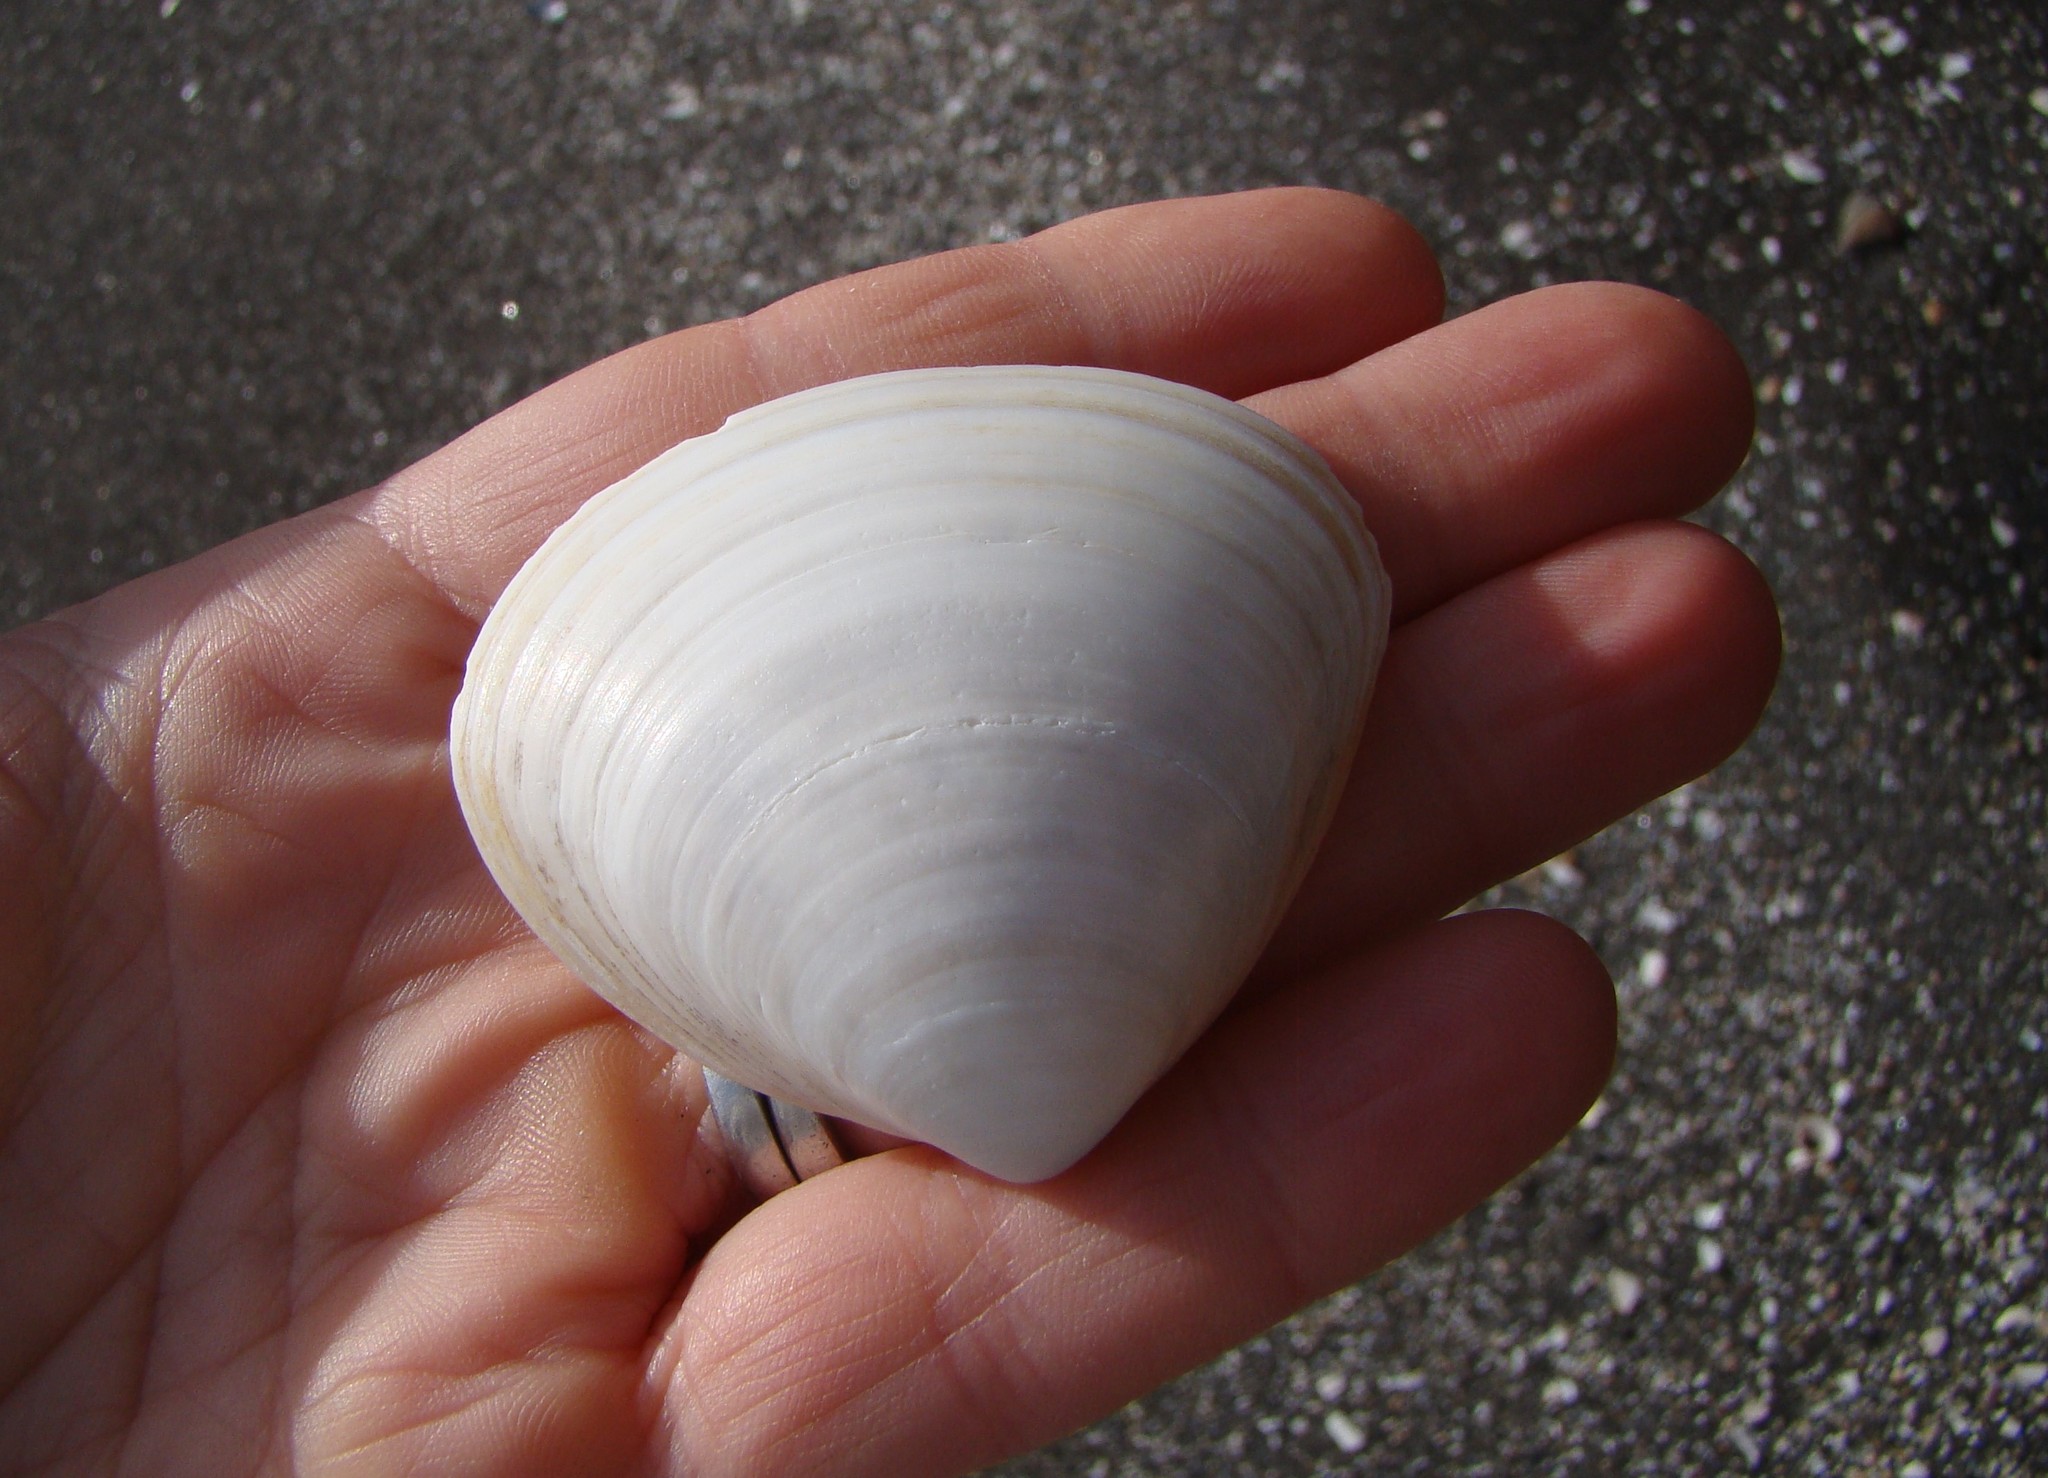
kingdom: Animalia
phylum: Mollusca
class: Bivalvia
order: Venerida
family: Mactridae
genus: Spisula
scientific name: Spisula murchisoni
